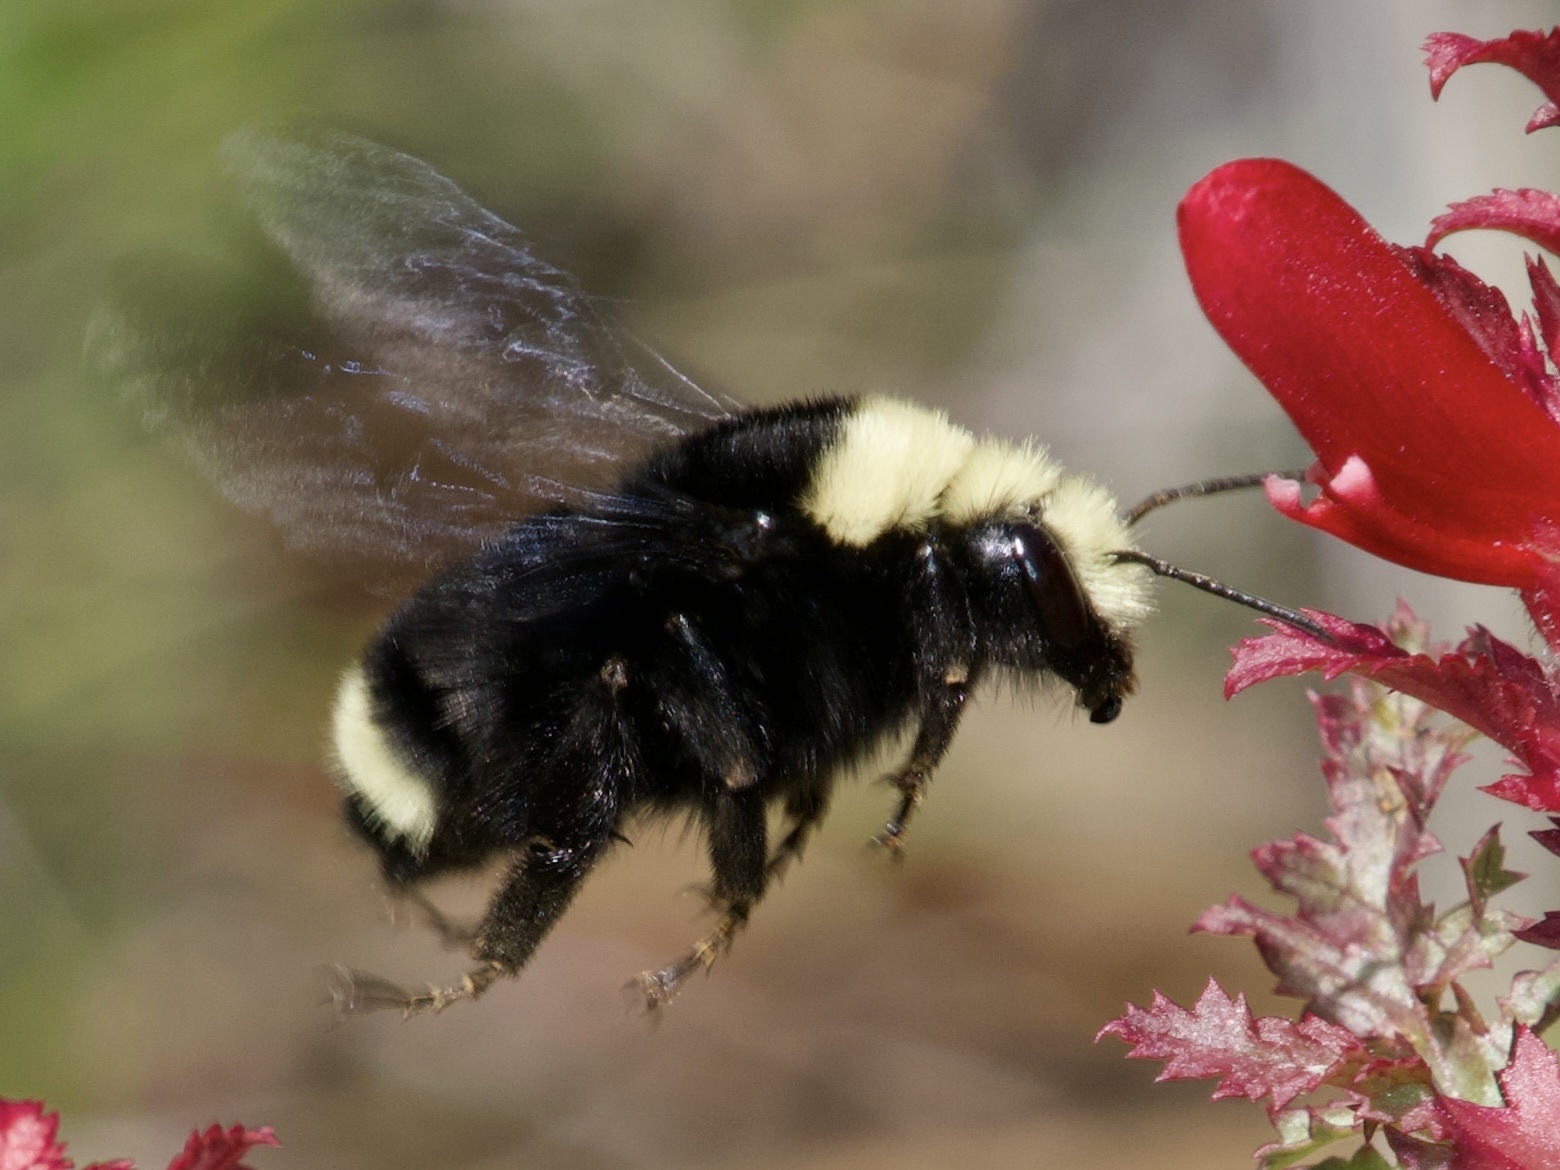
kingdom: Animalia
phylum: Arthropoda
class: Insecta
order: Hymenoptera
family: Apidae
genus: Bombus
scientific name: Bombus vosnesenskii
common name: Vosnesensky bumble bee
